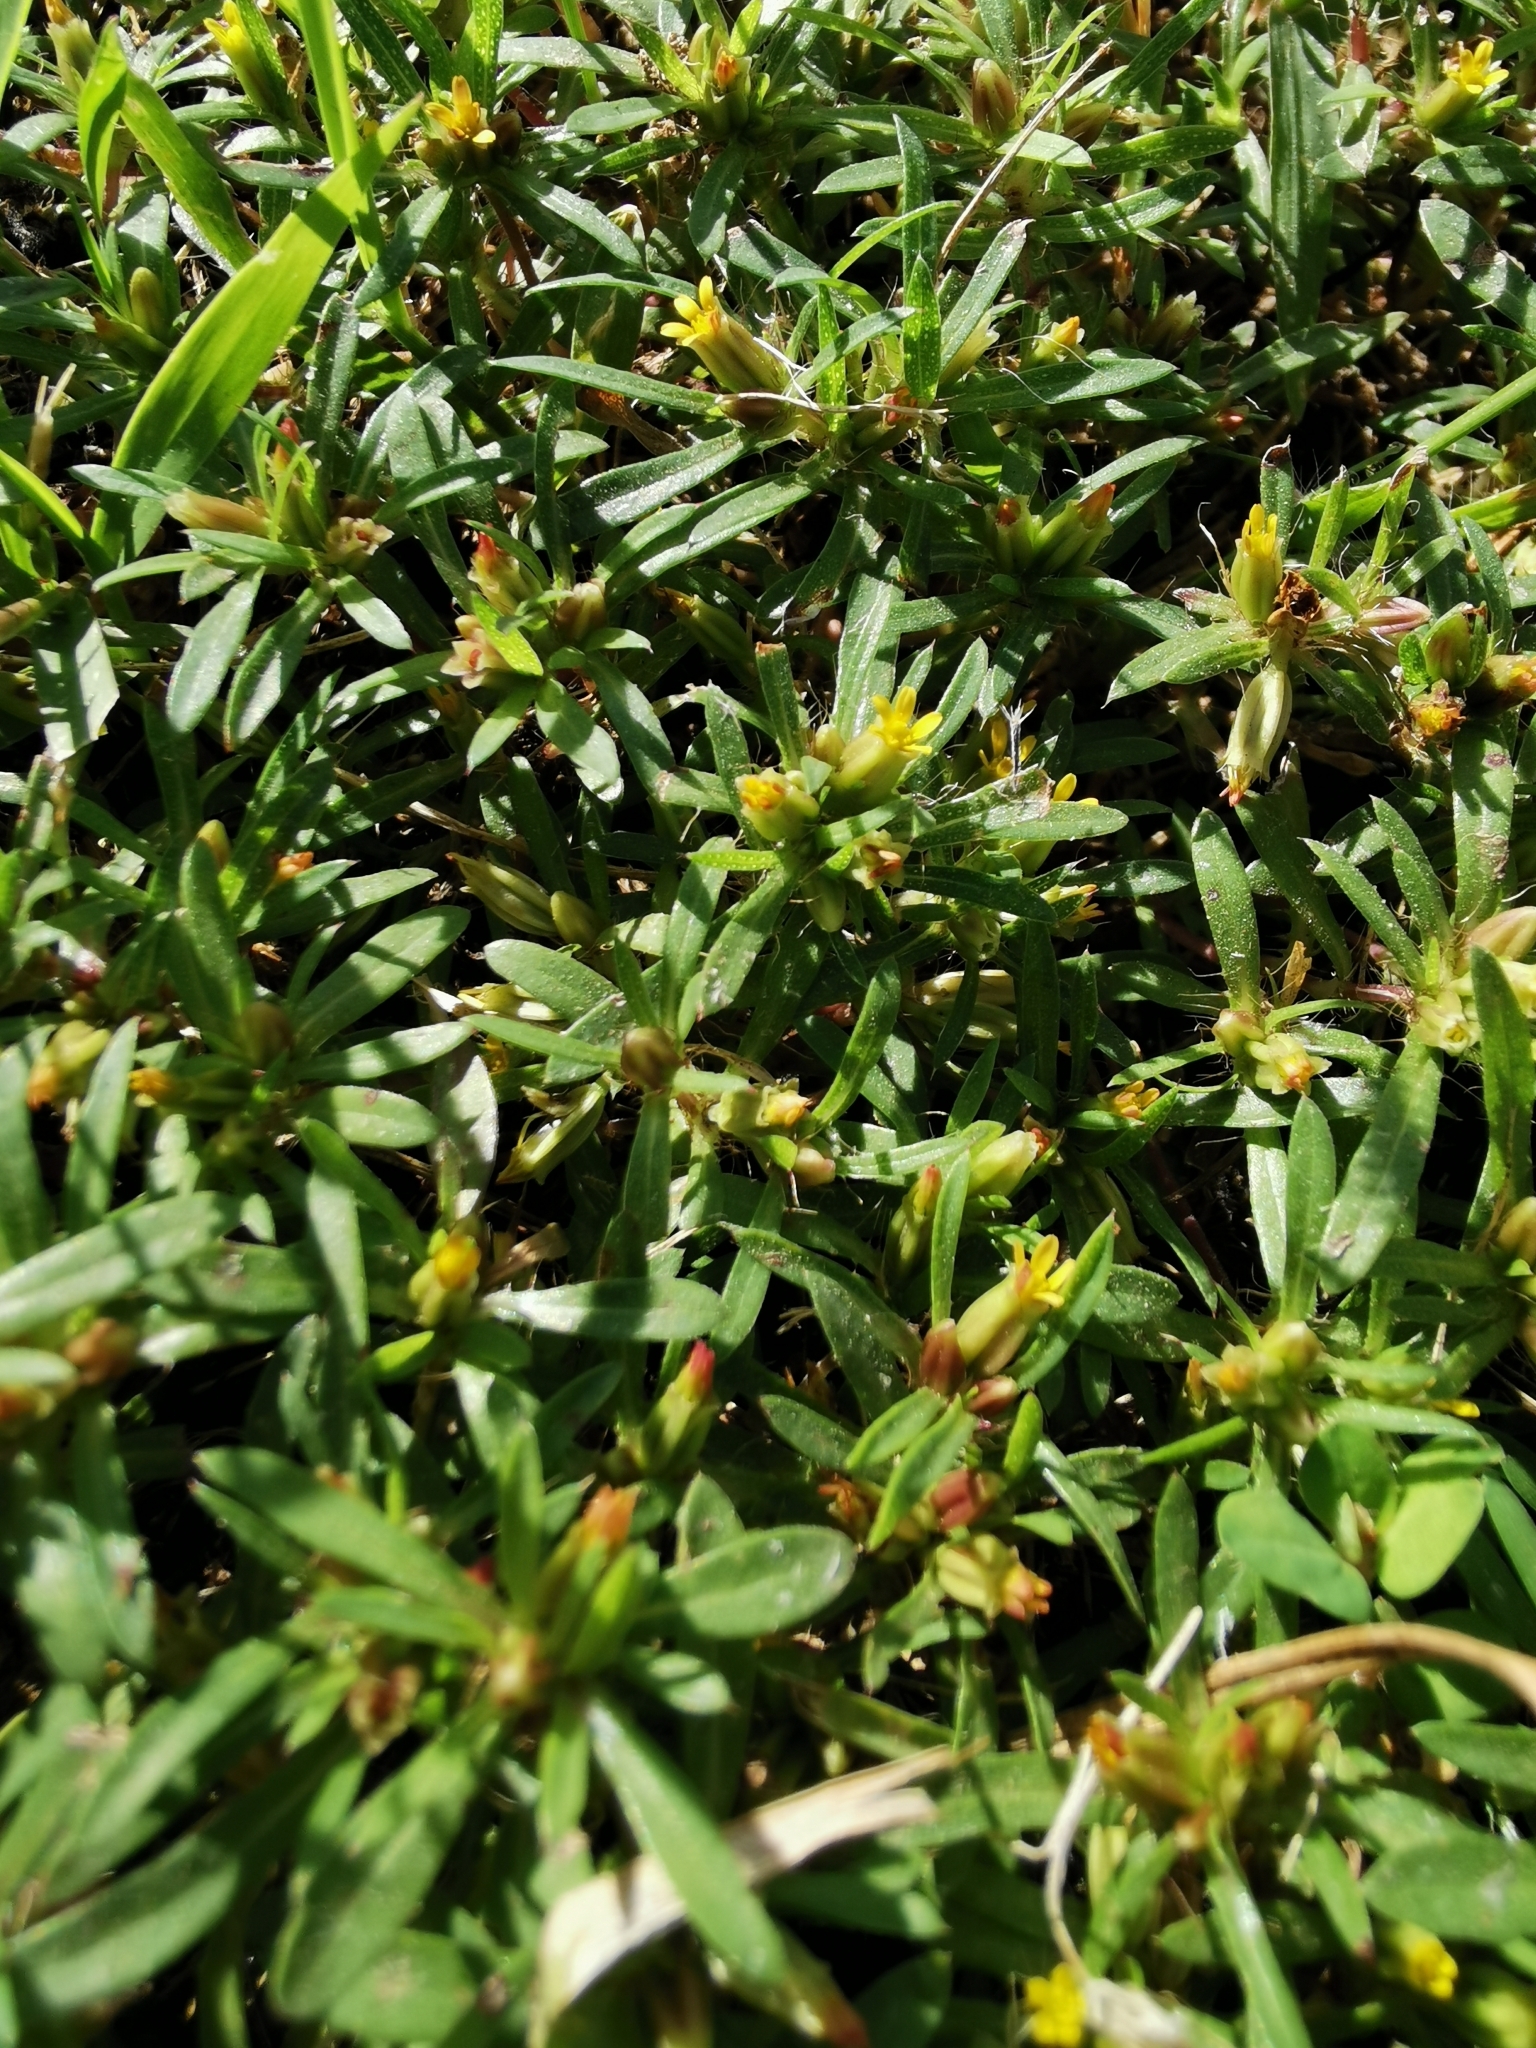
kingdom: Plantae
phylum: Tracheophyta
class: Magnoliopsida
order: Asterales
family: Asteraceae
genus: Pectis
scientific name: Pectis prostrata
